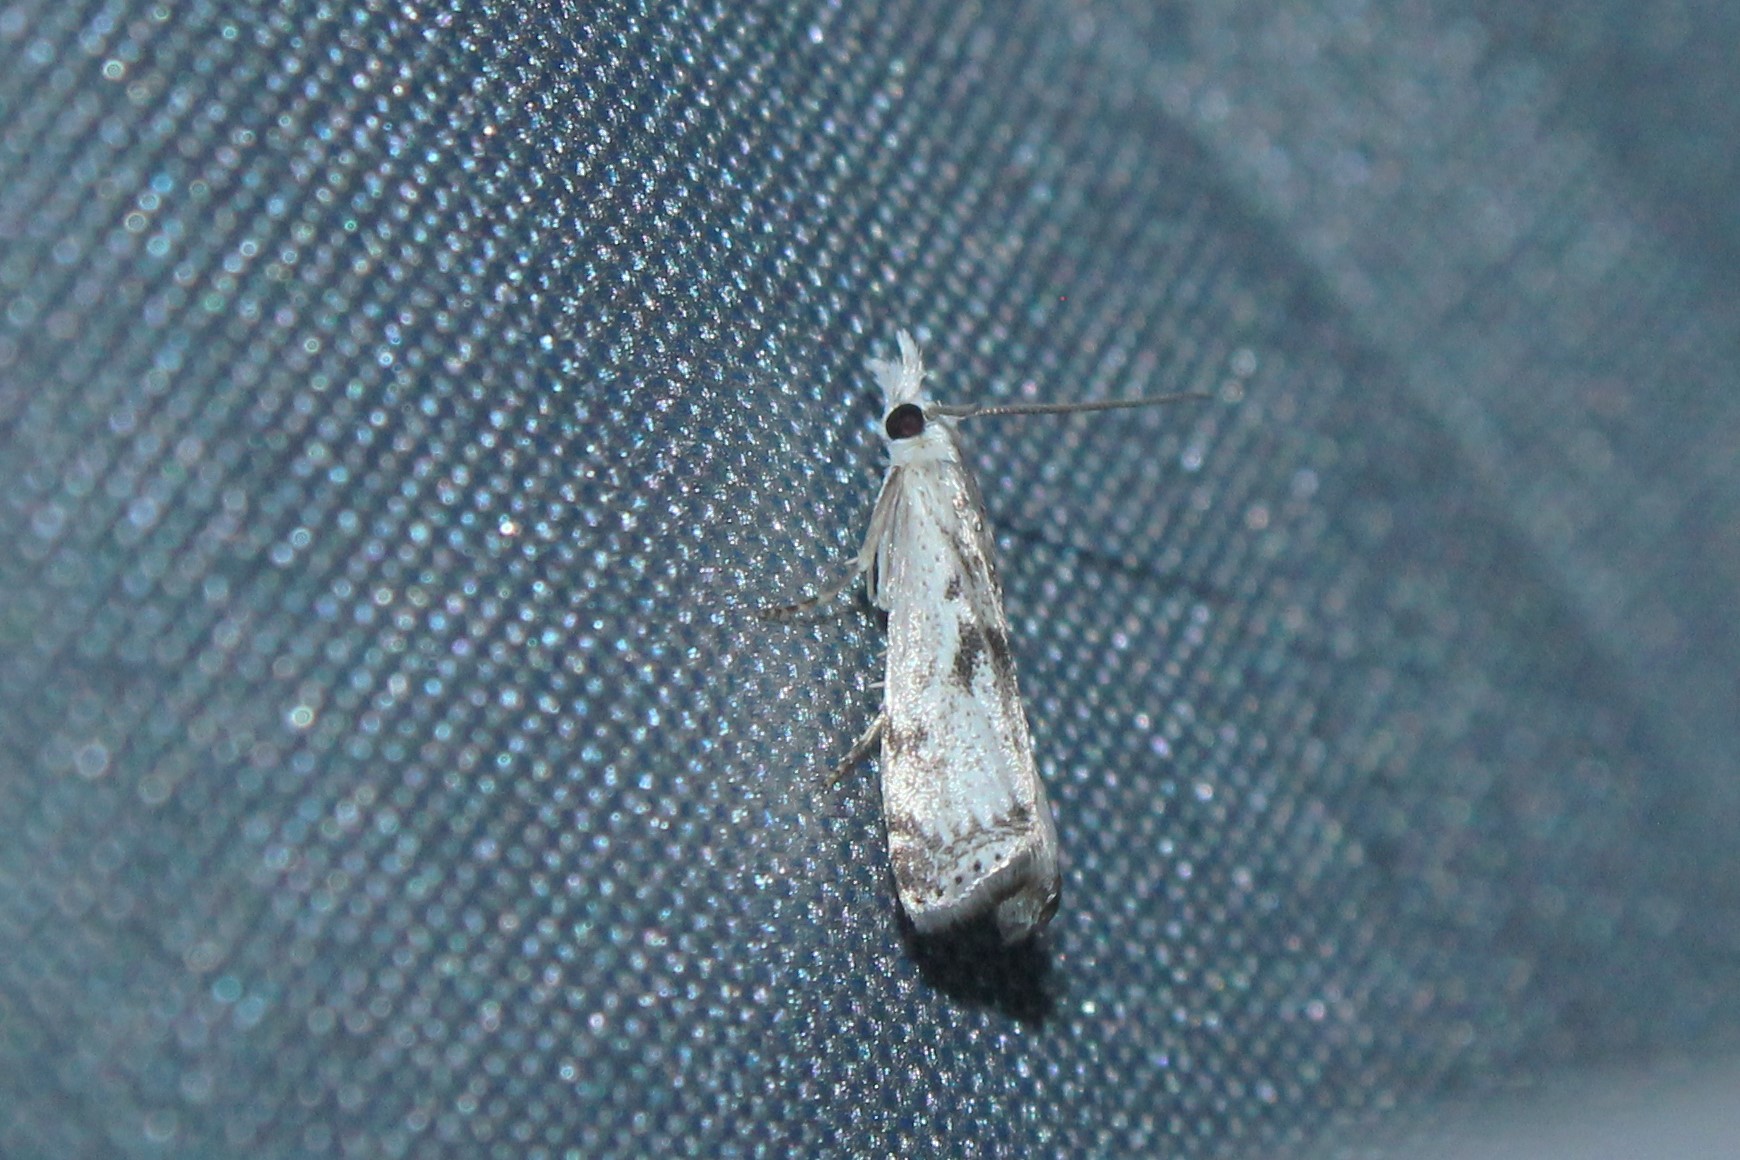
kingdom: Animalia
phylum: Arthropoda
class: Insecta
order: Lepidoptera
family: Crambidae
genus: Microcrambus
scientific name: Microcrambus immunellus
